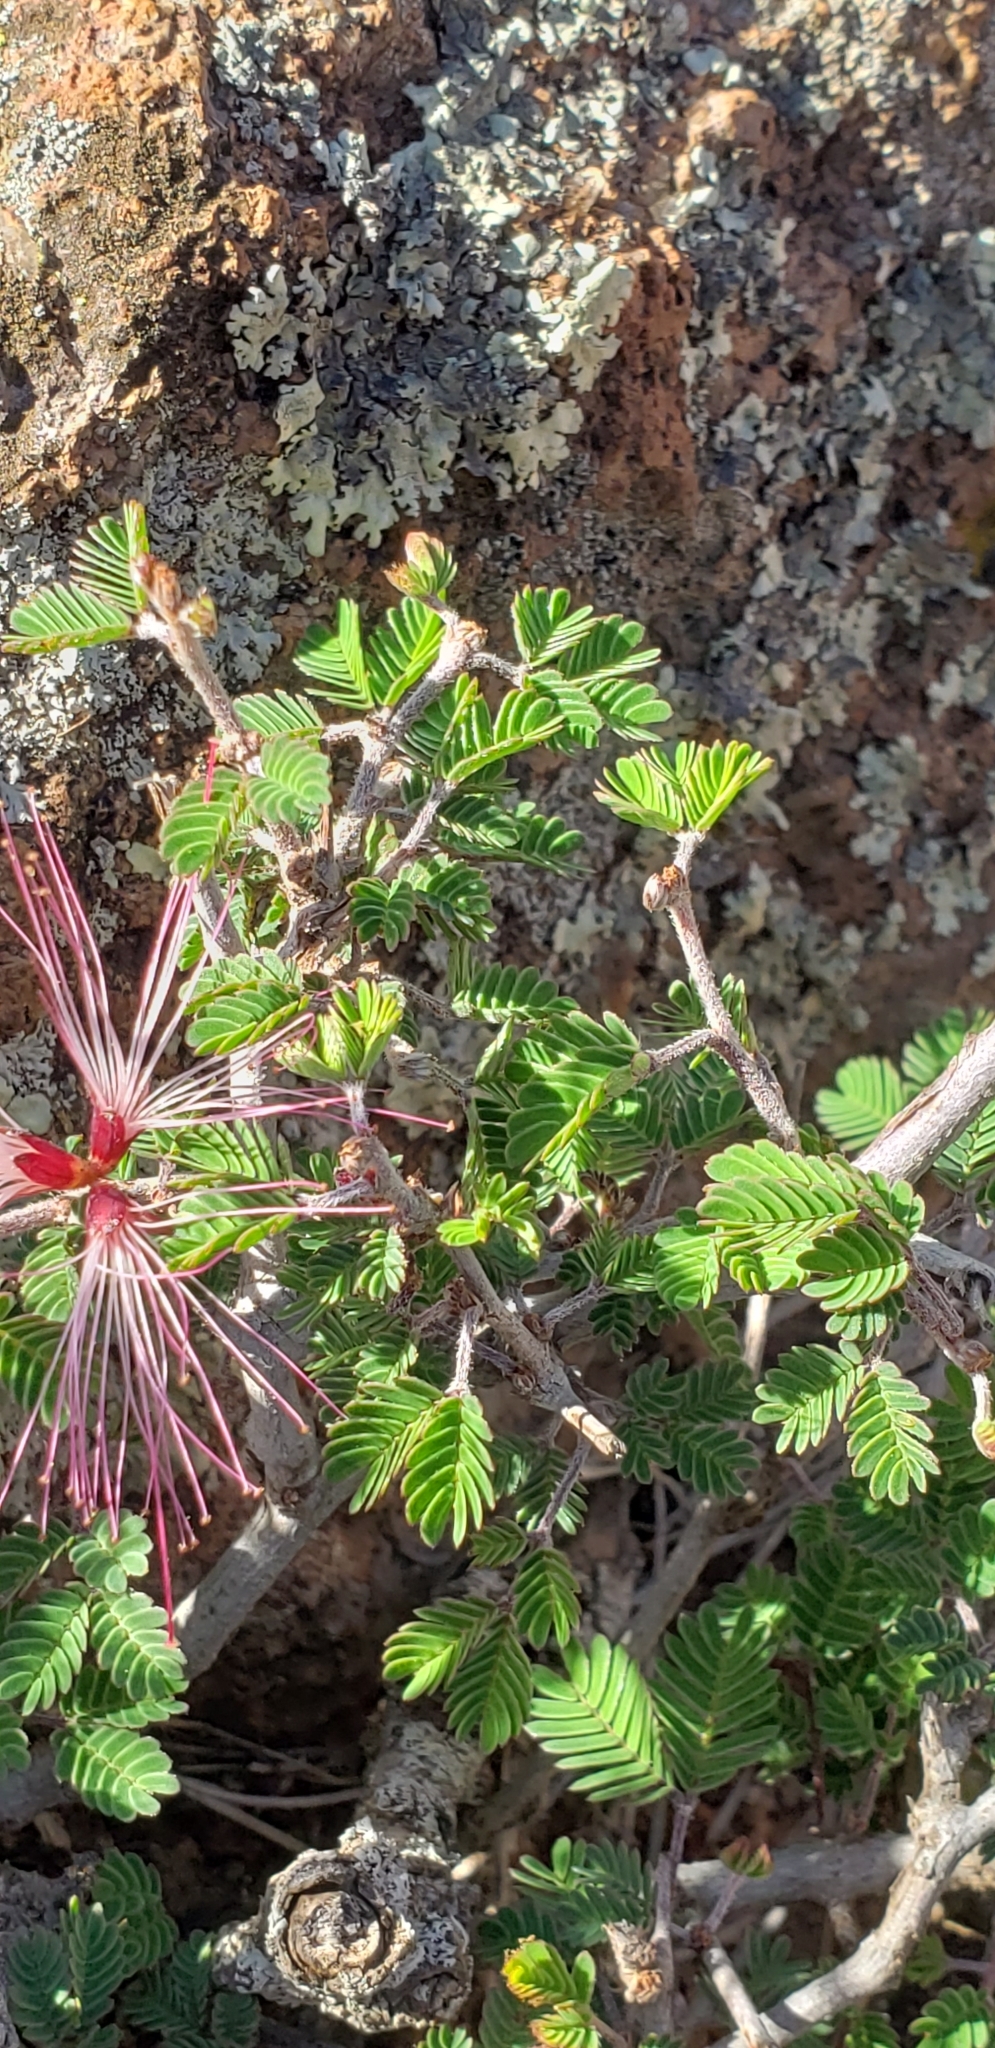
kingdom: Plantae
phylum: Tracheophyta
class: Magnoliopsida
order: Fabales
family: Fabaceae
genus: Calliandra
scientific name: Calliandra eriophylla
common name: Fairy-duster
